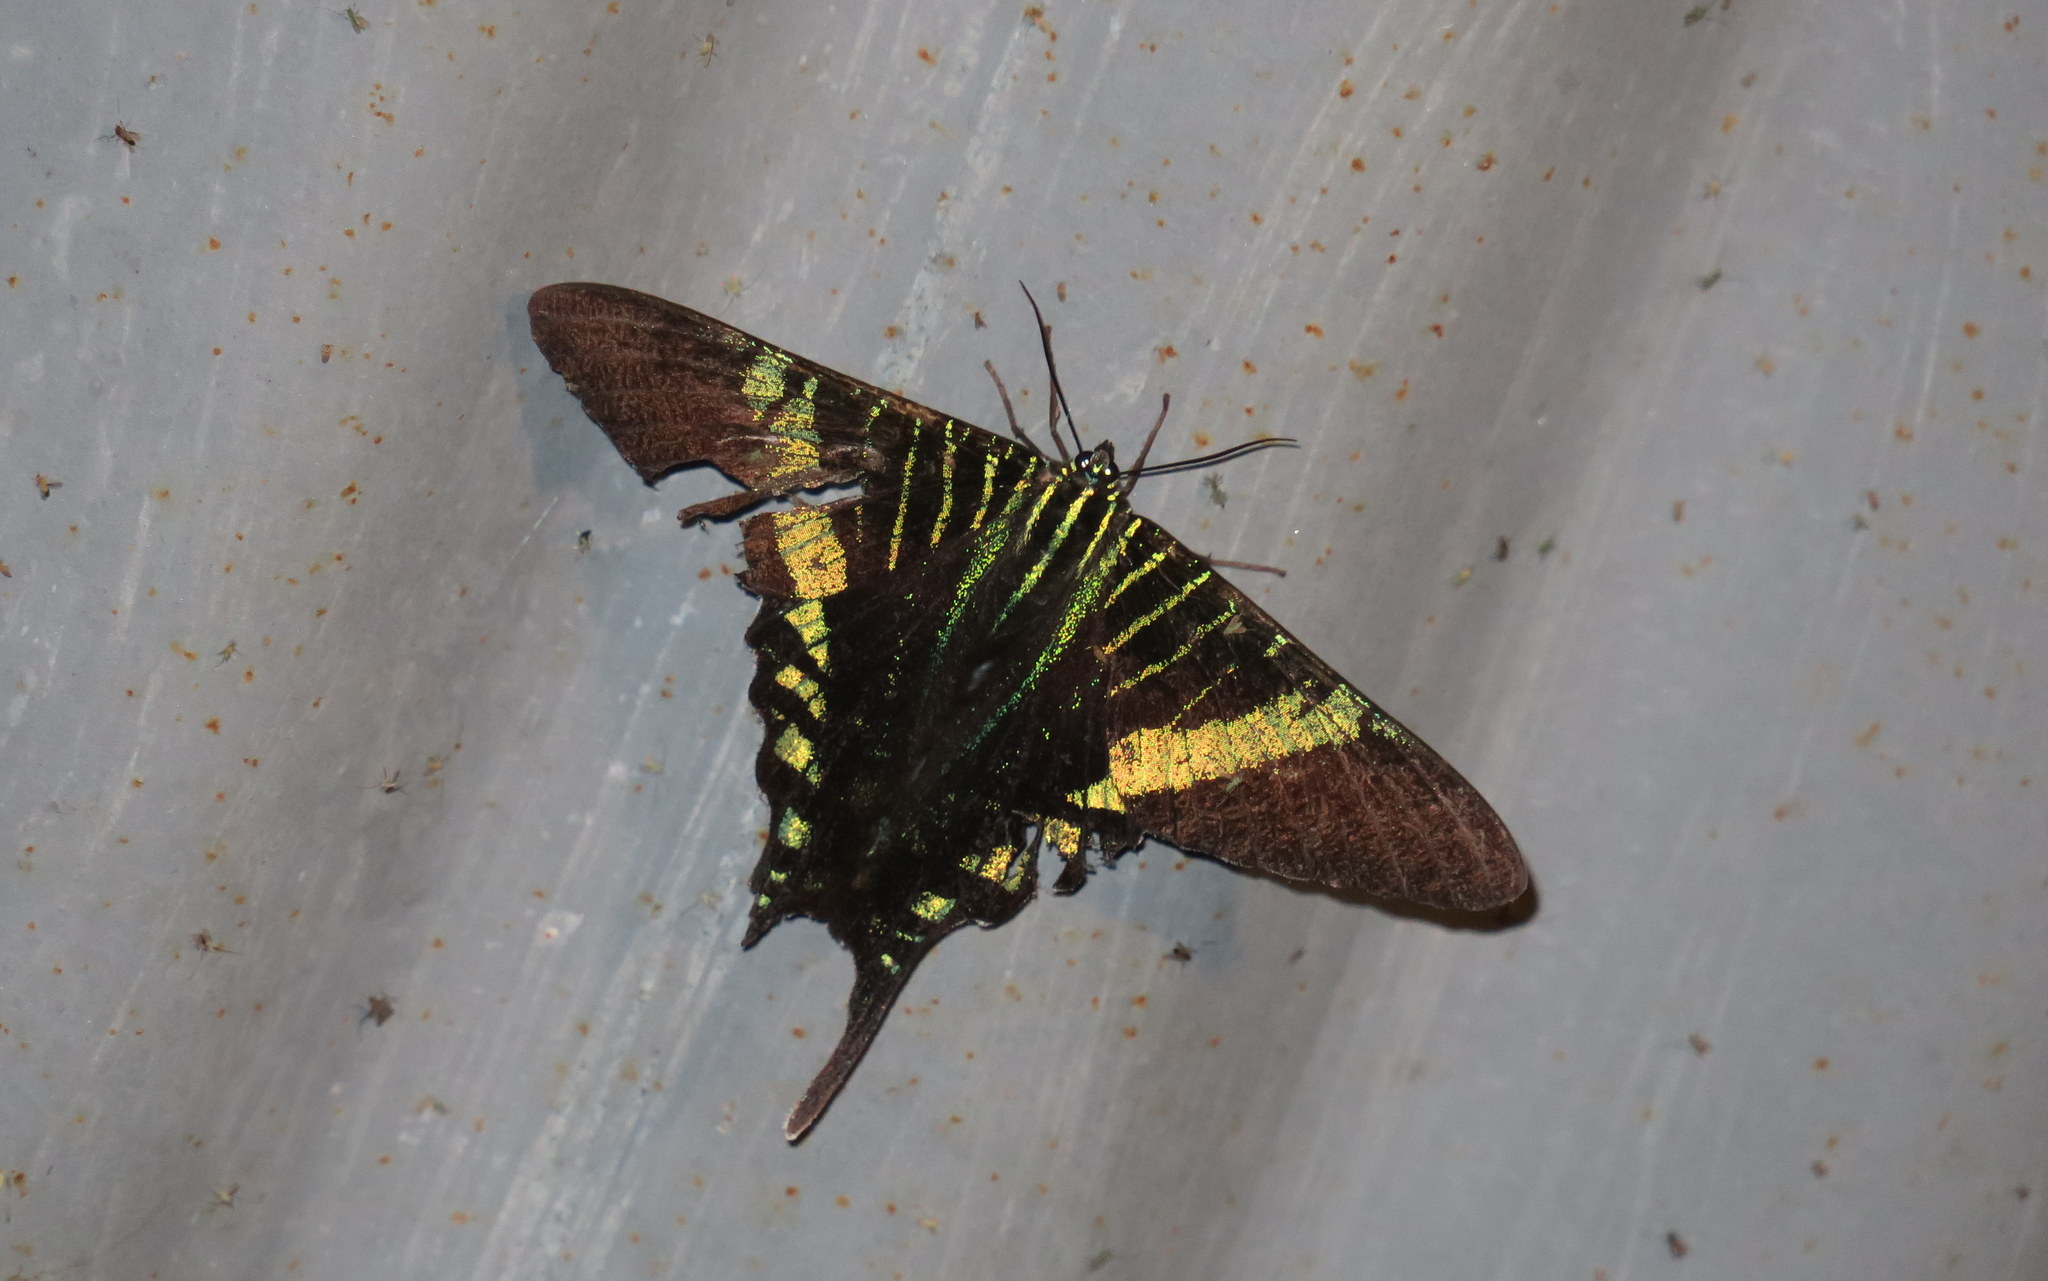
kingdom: Animalia
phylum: Arthropoda
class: Insecta
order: Lepidoptera
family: Uraniidae
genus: Urania
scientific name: Urania fulgens
